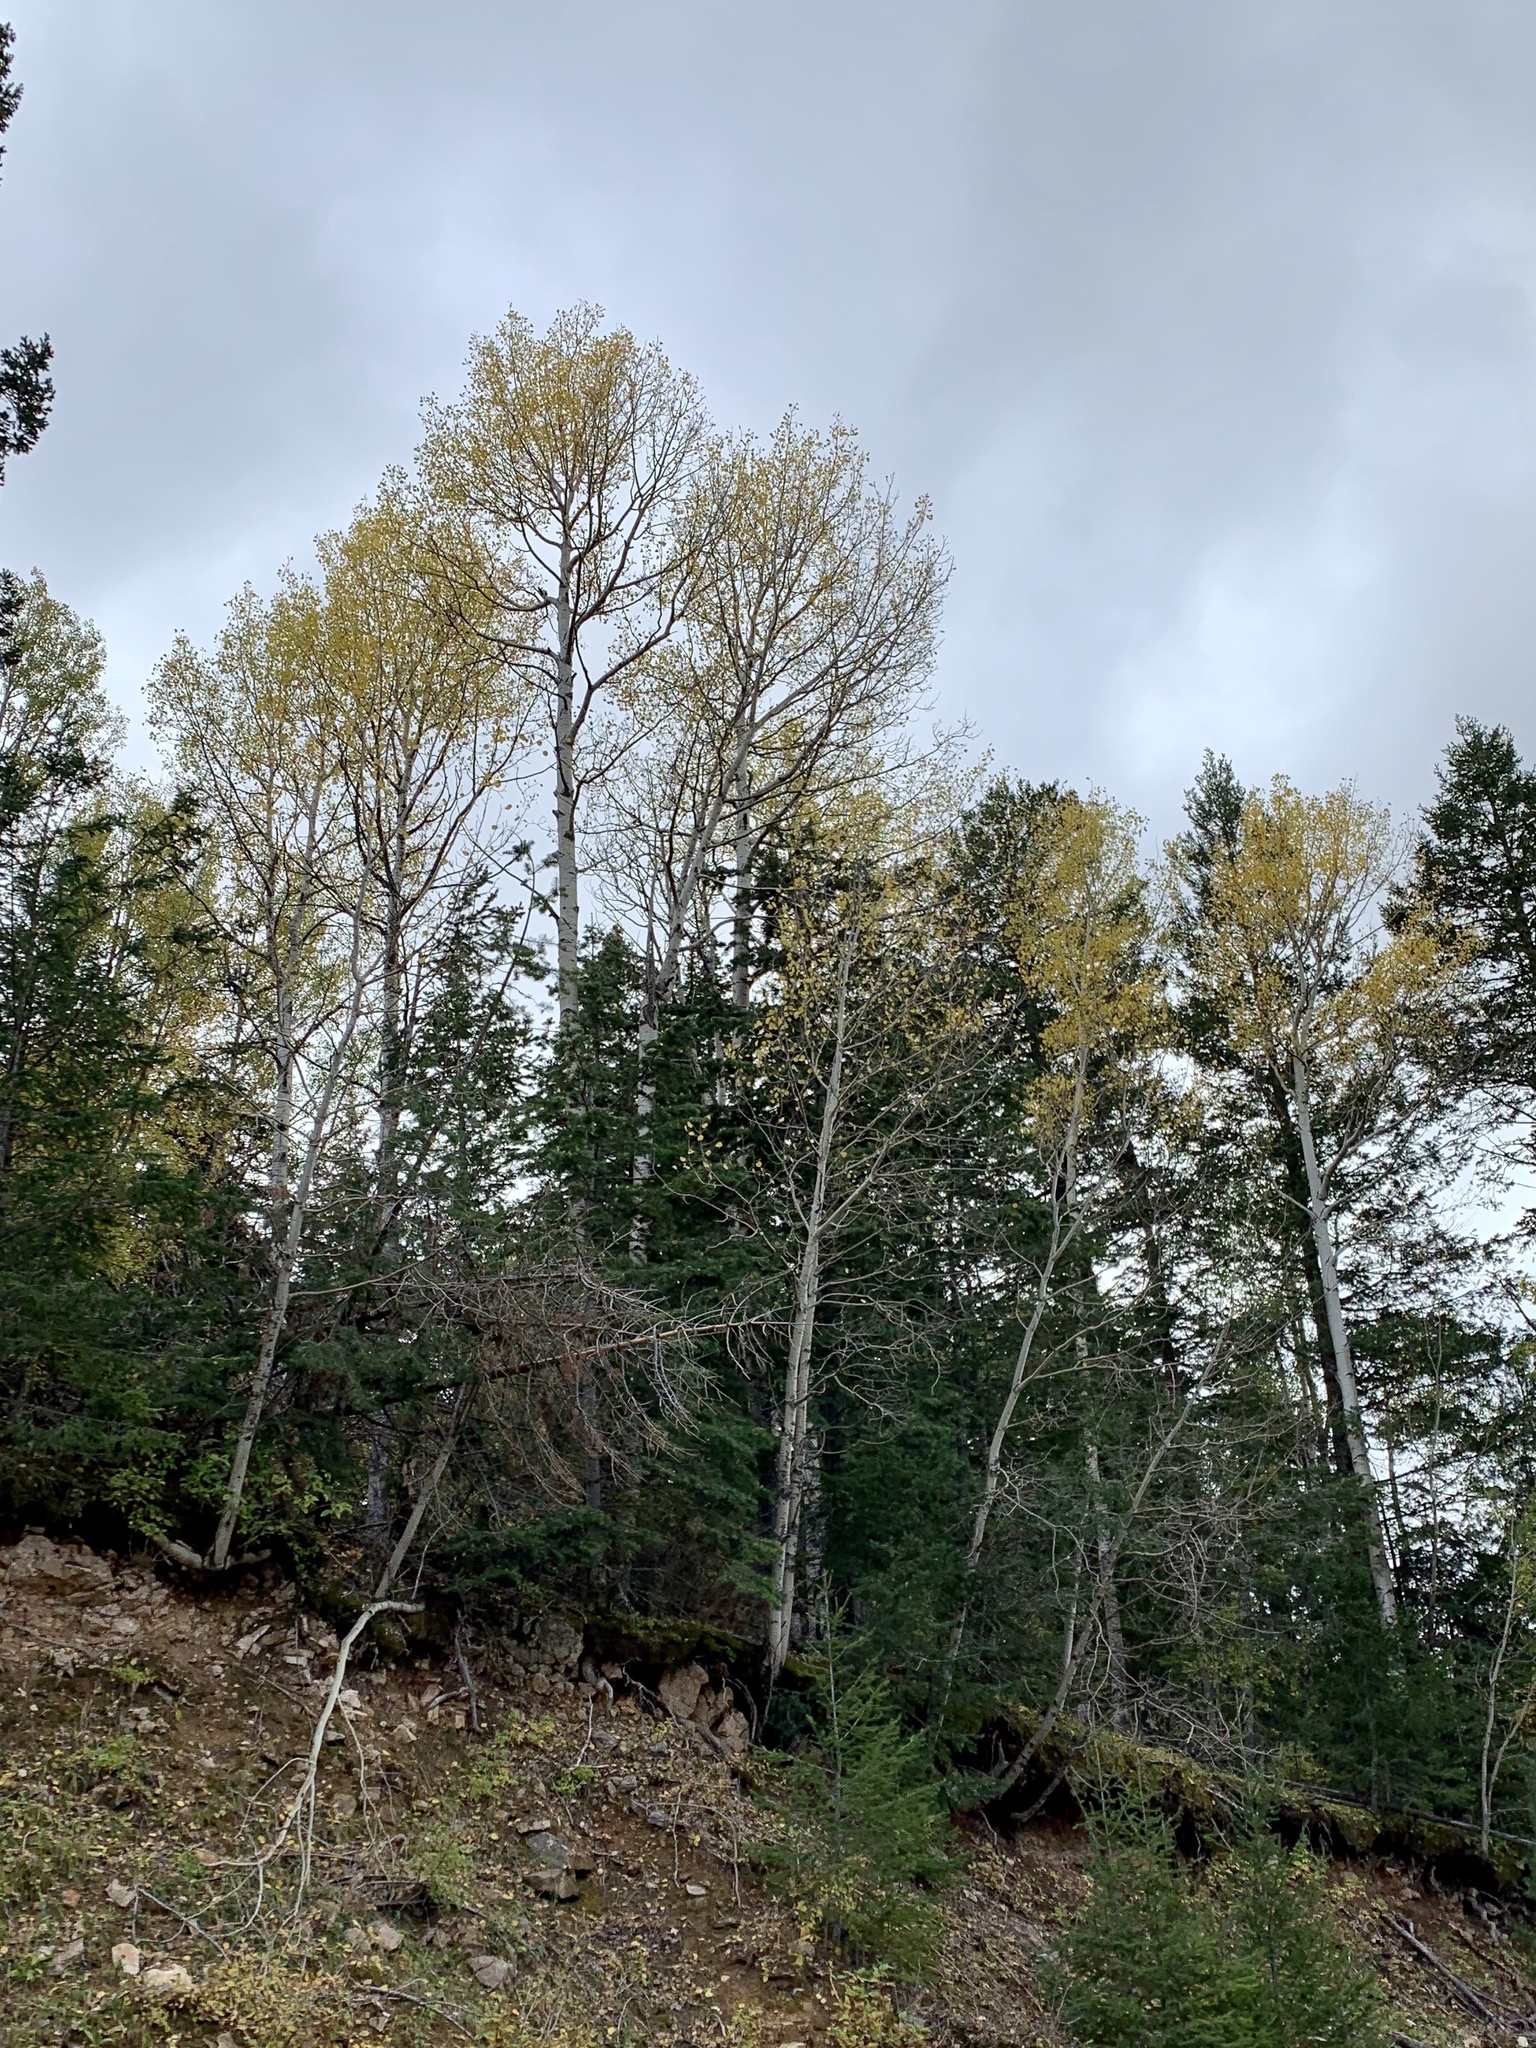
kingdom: Plantae
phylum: Tracheophyta
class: Magnoliopsida
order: Malpighiales
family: Salicaceae
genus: Populus
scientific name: Populus tremuloides
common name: Quaking aspen
